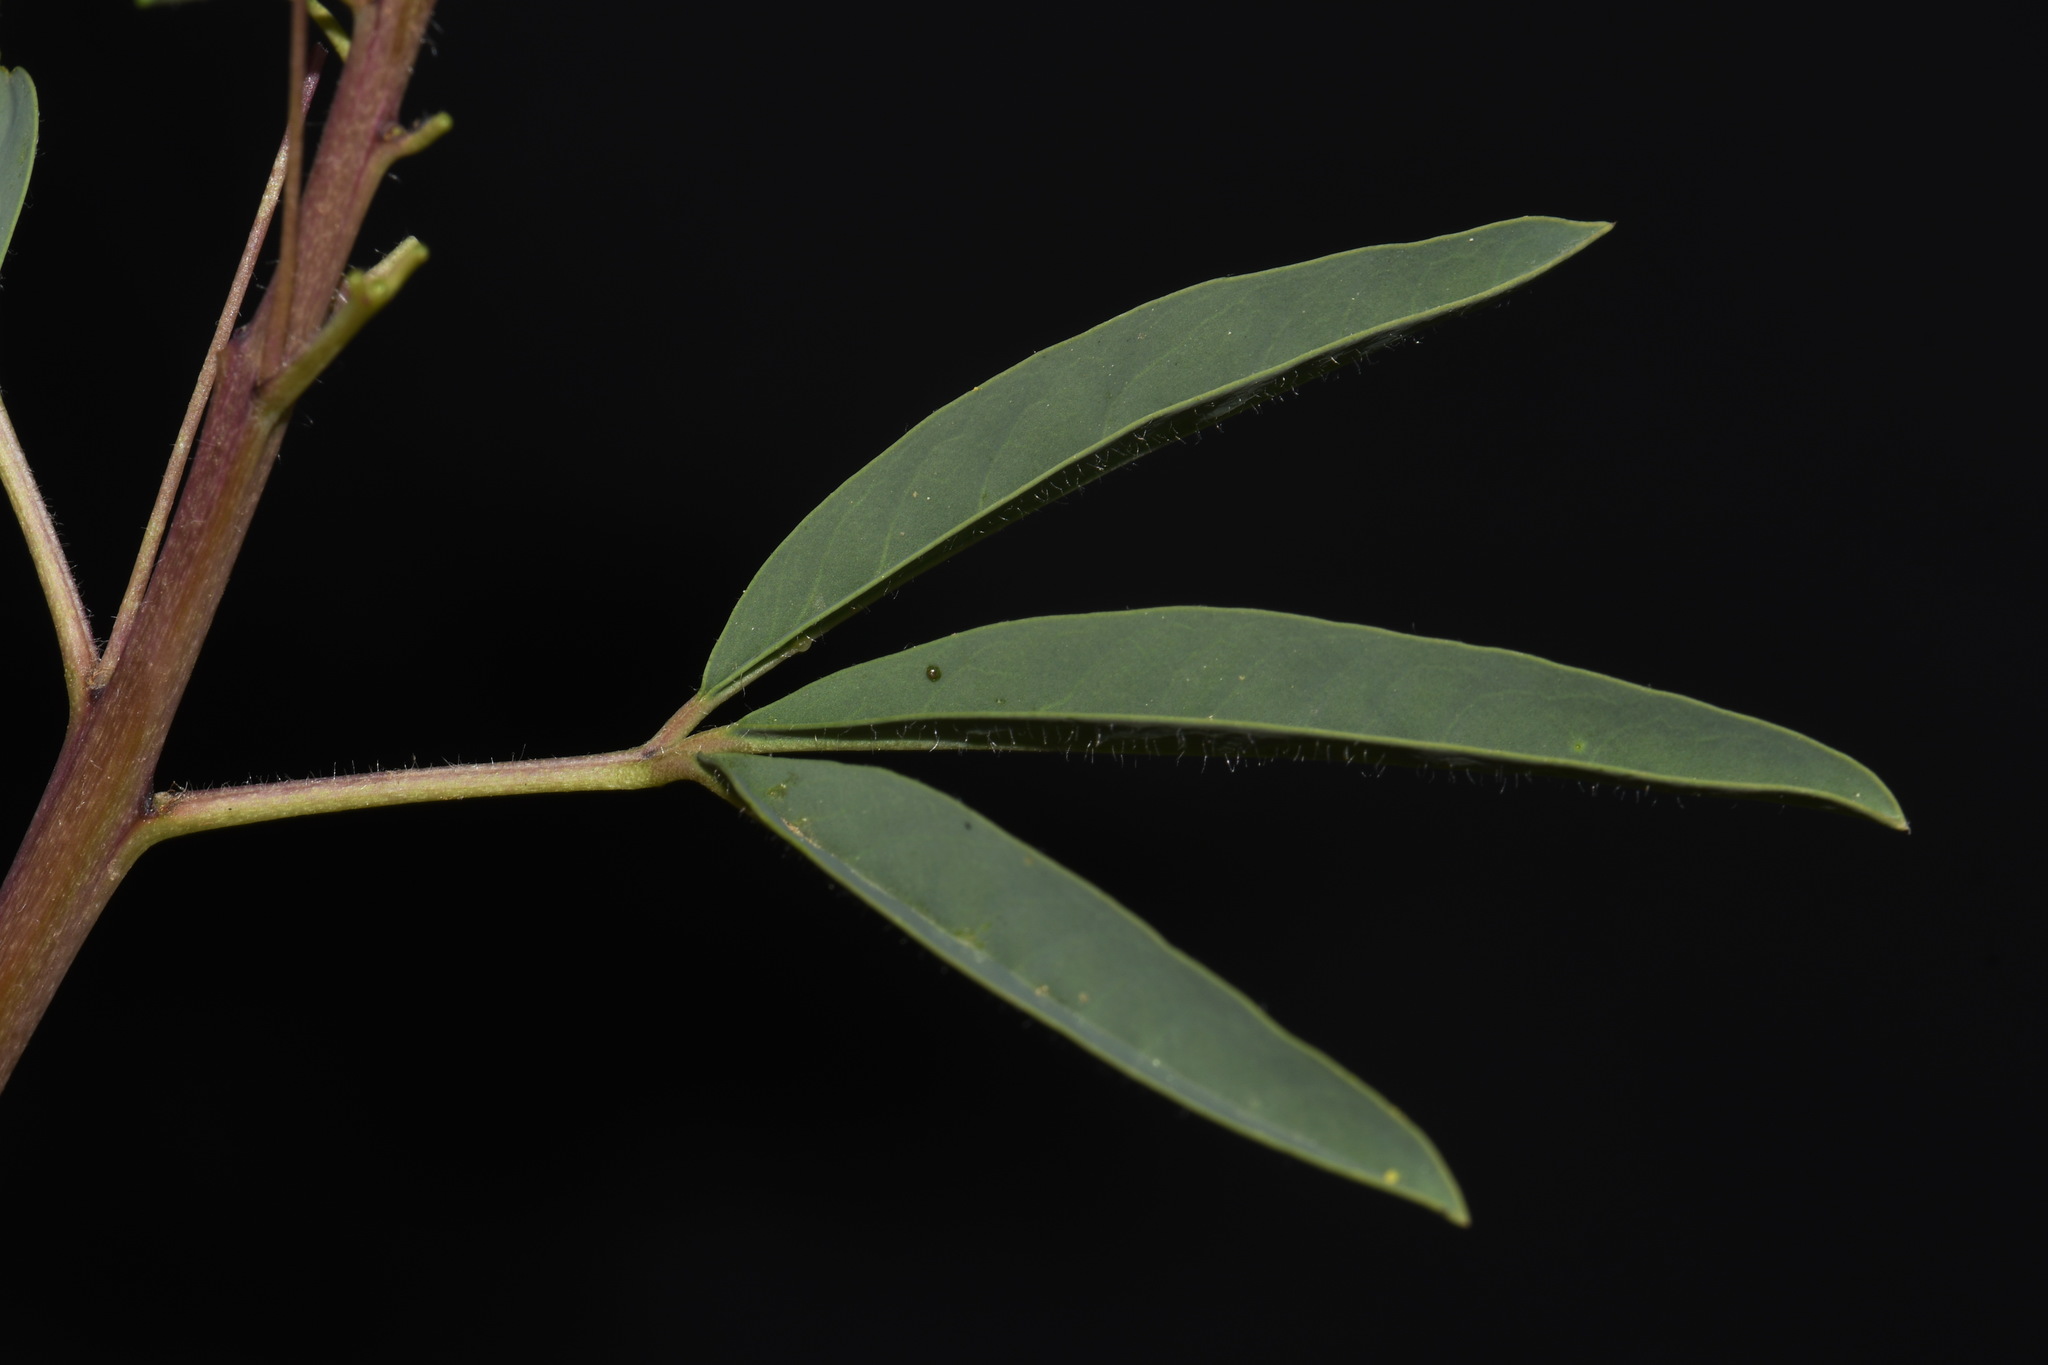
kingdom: Plantae
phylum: Tracheophyta
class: Magnoliopsida
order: Brassicales
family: Cleomaceae
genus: Cleomella
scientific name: Cleomella serrulata
